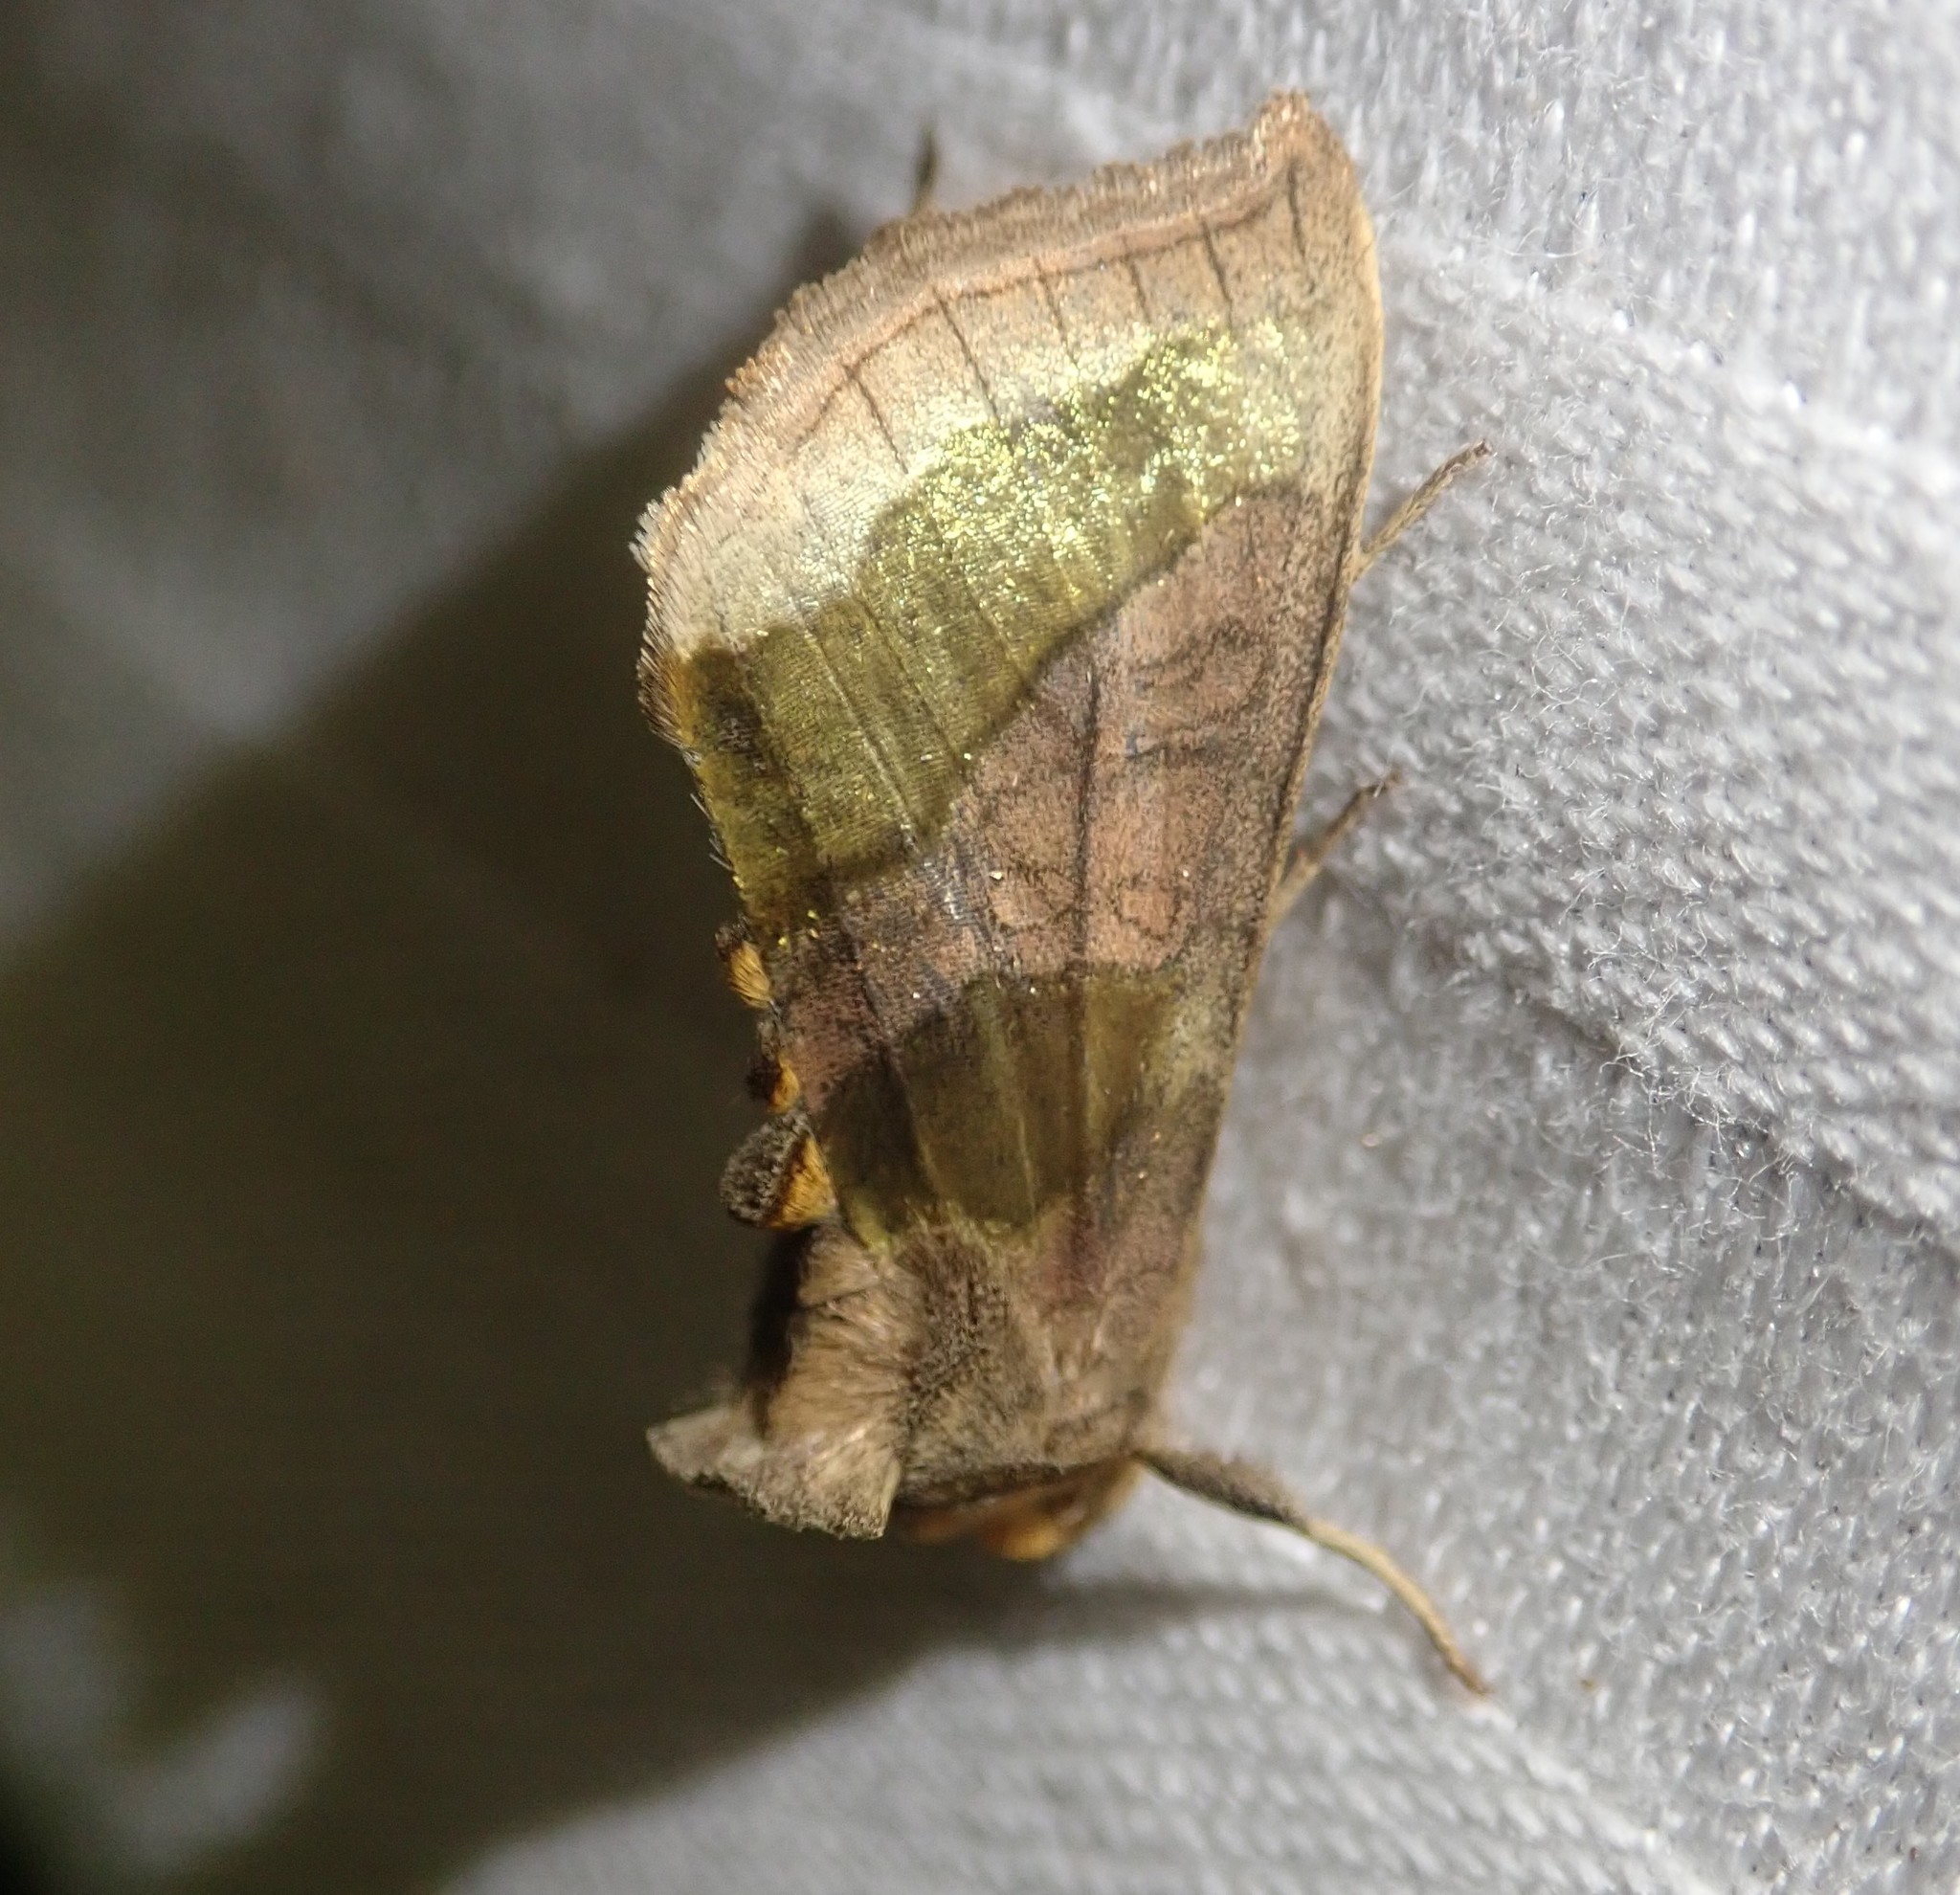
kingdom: Animalia
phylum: Arthropoda
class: Insecta
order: Lepidoptera
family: Noctuidae
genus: Diachrysia
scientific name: Diachrysia chrysitis
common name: Burnished brass
